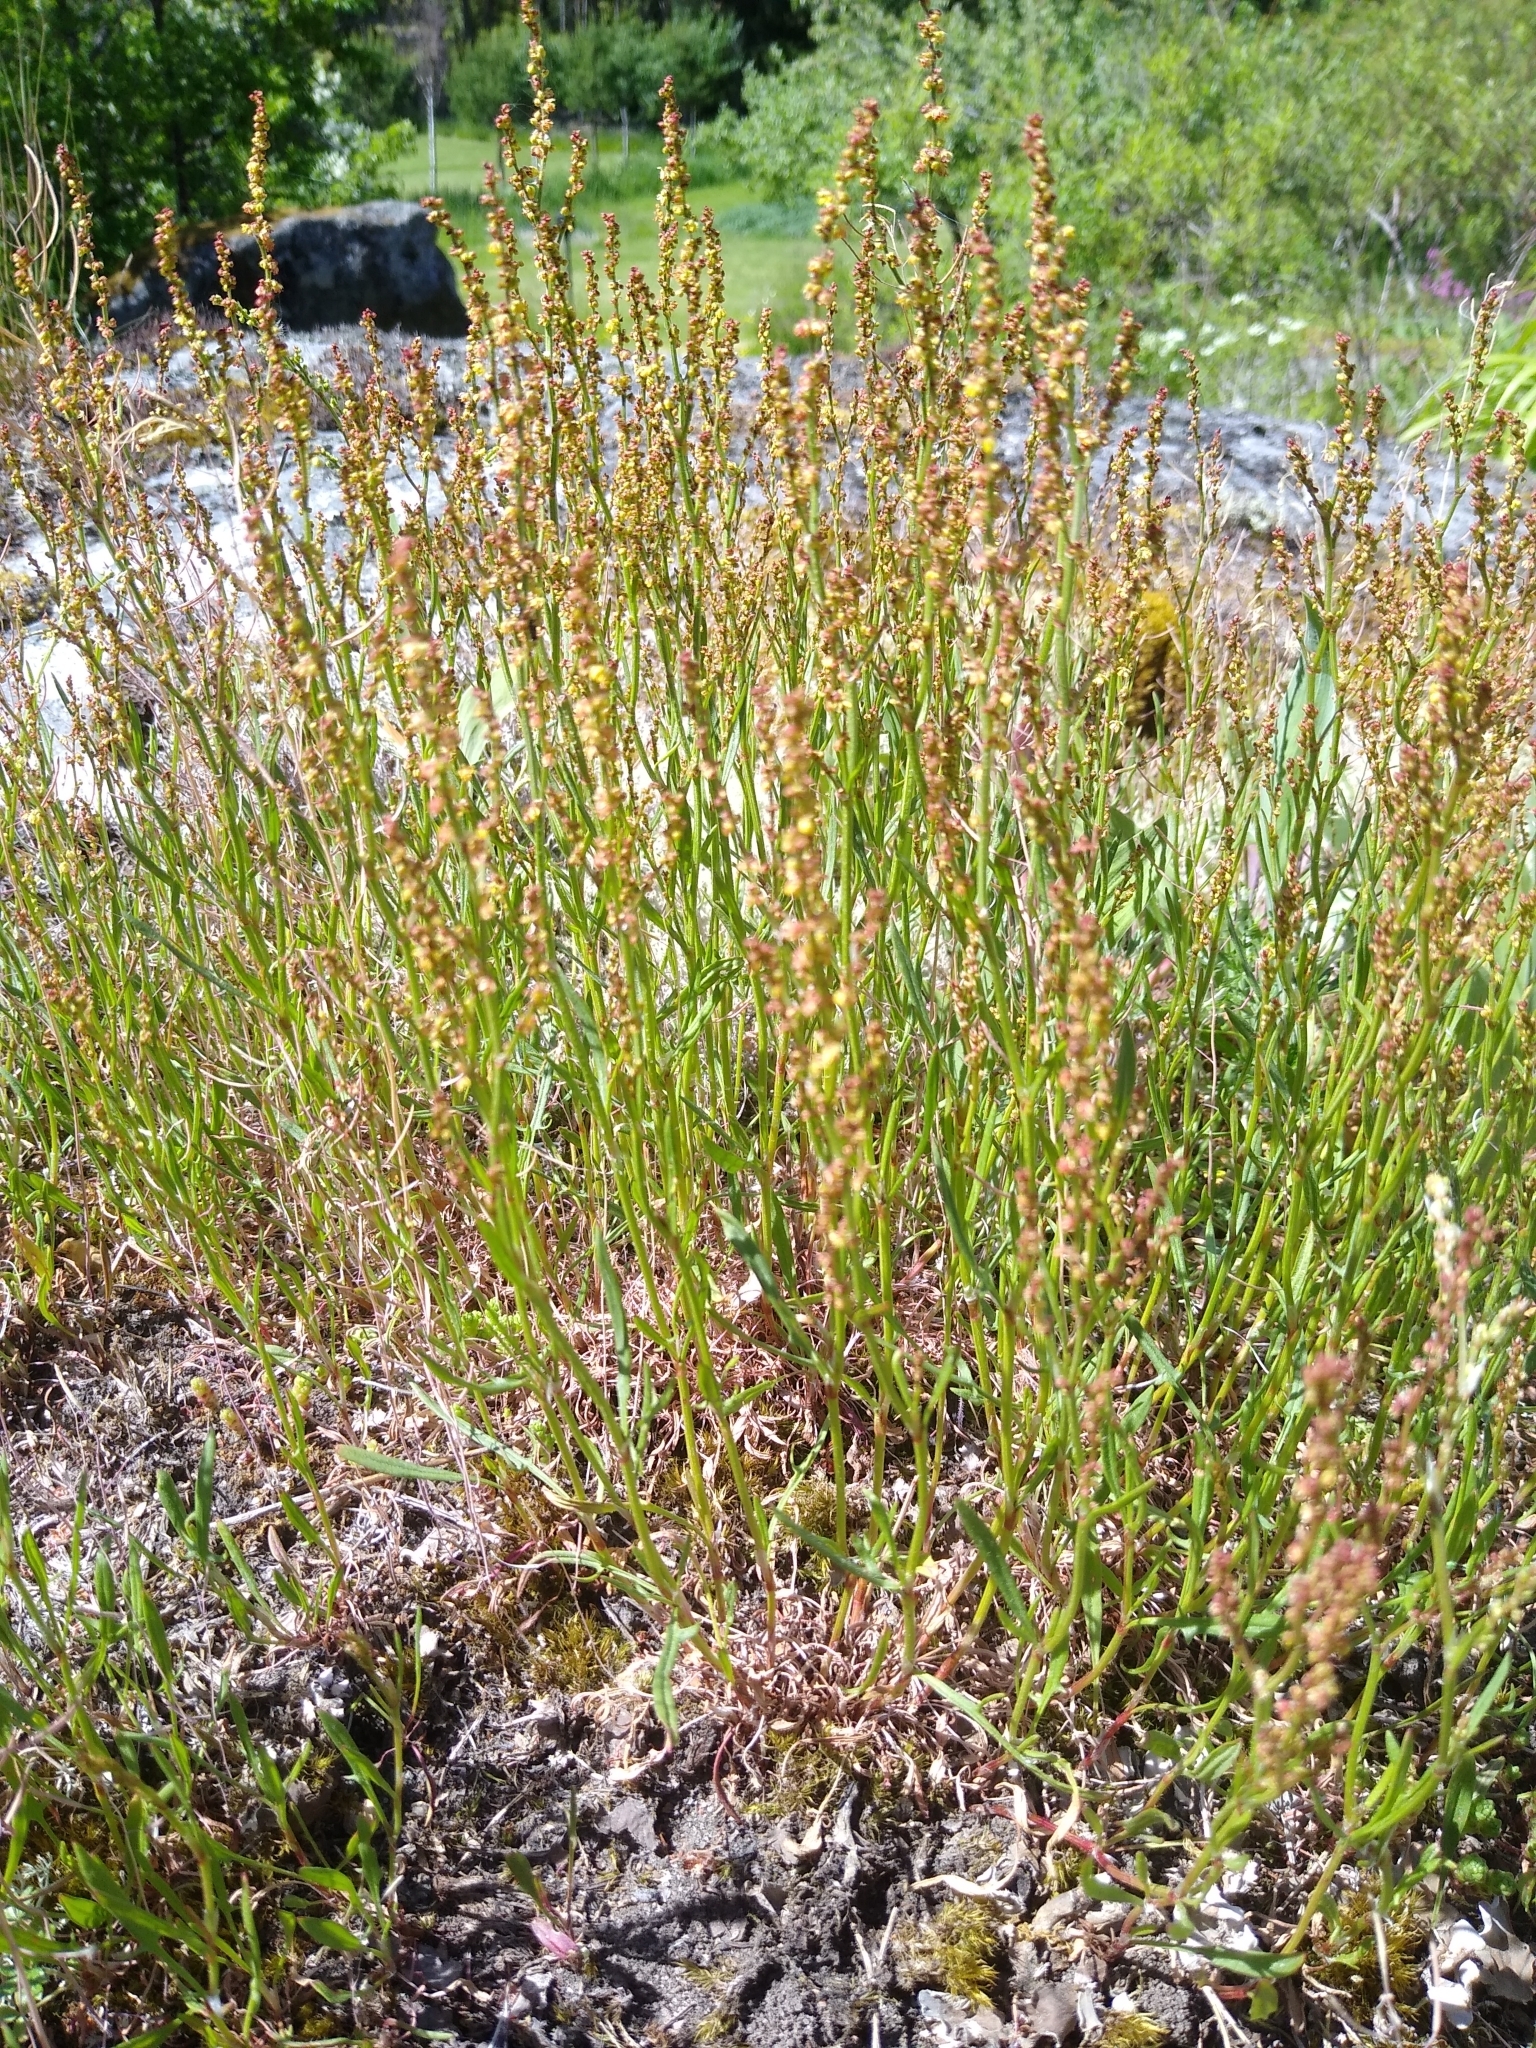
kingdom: Plantae
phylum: Tracheophyta
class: Magnoliopsida
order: Caryophyllales
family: Polygonaceae
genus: Rumex
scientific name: Rumex acetosella
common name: Common sheep sorrel
